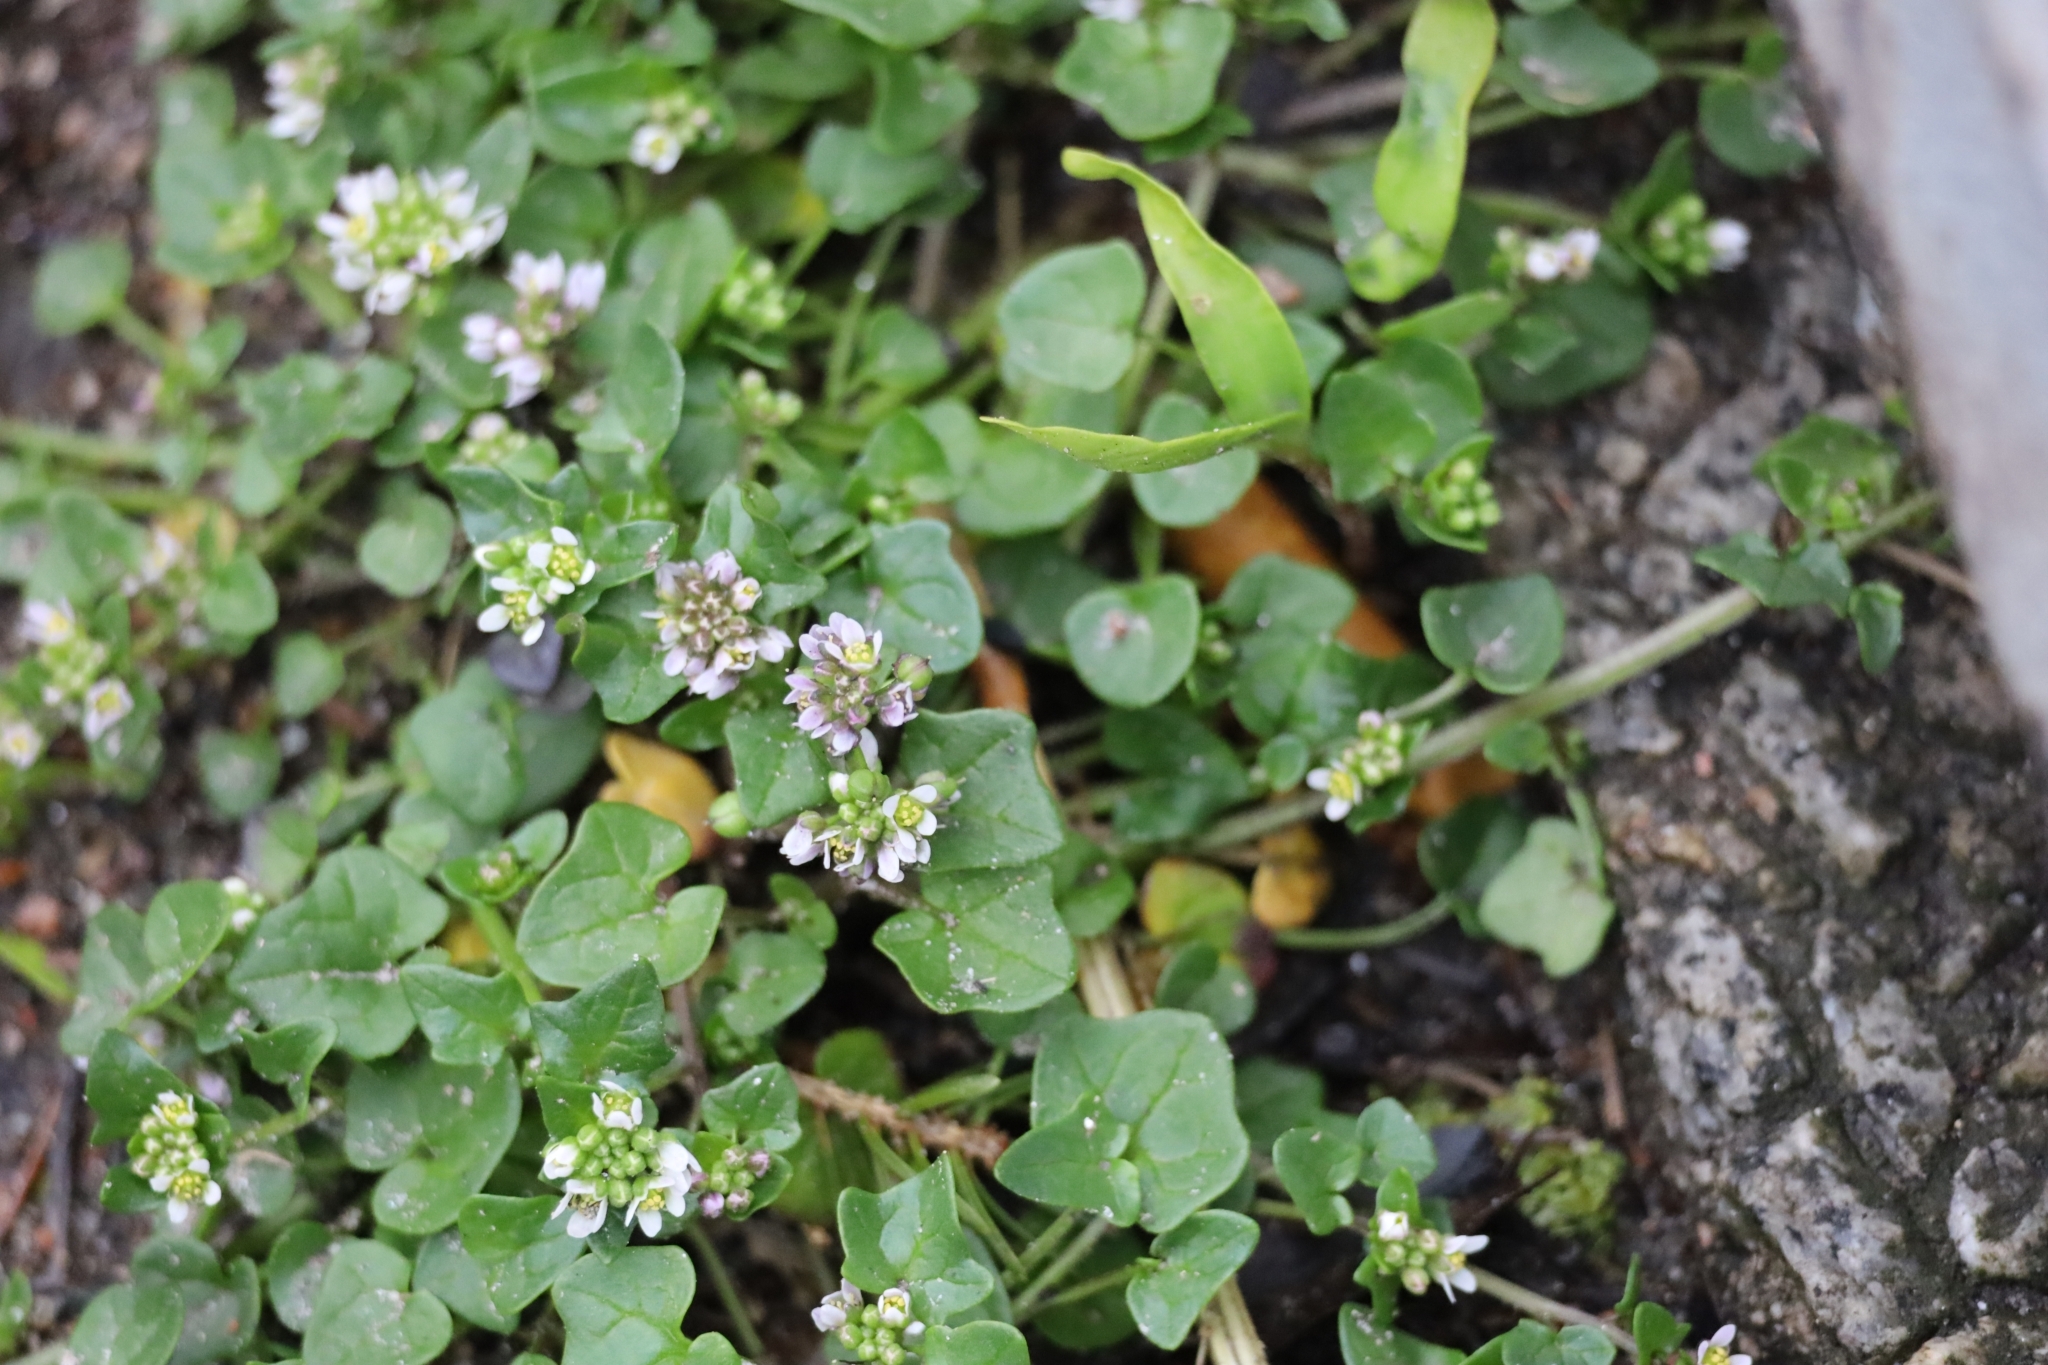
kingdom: Plantae
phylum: Tracheophyta
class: Magnoliopsida
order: Brassicales
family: Brassicaceae
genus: Cochlearia
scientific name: Cochlearia danica
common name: Early scurvygrass
